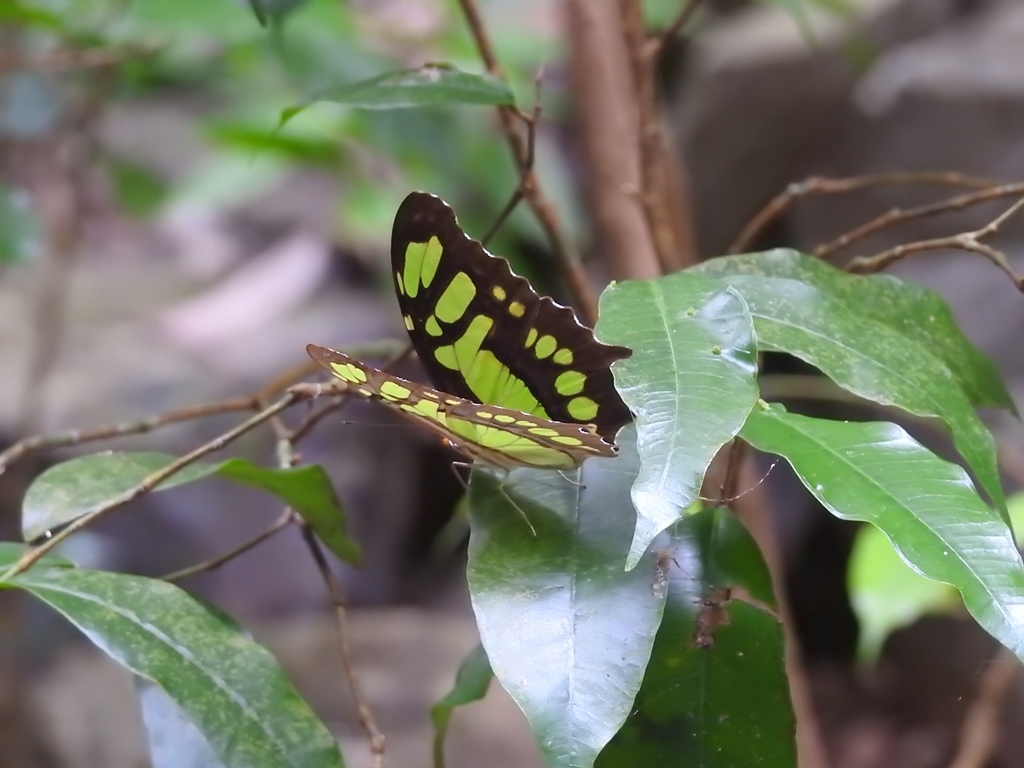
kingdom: Animalia
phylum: Arthropoda
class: Insecta
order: Lepidoptera
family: Nymphalidae
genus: Siproeta
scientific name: Siproeta stelenes
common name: Malachite
